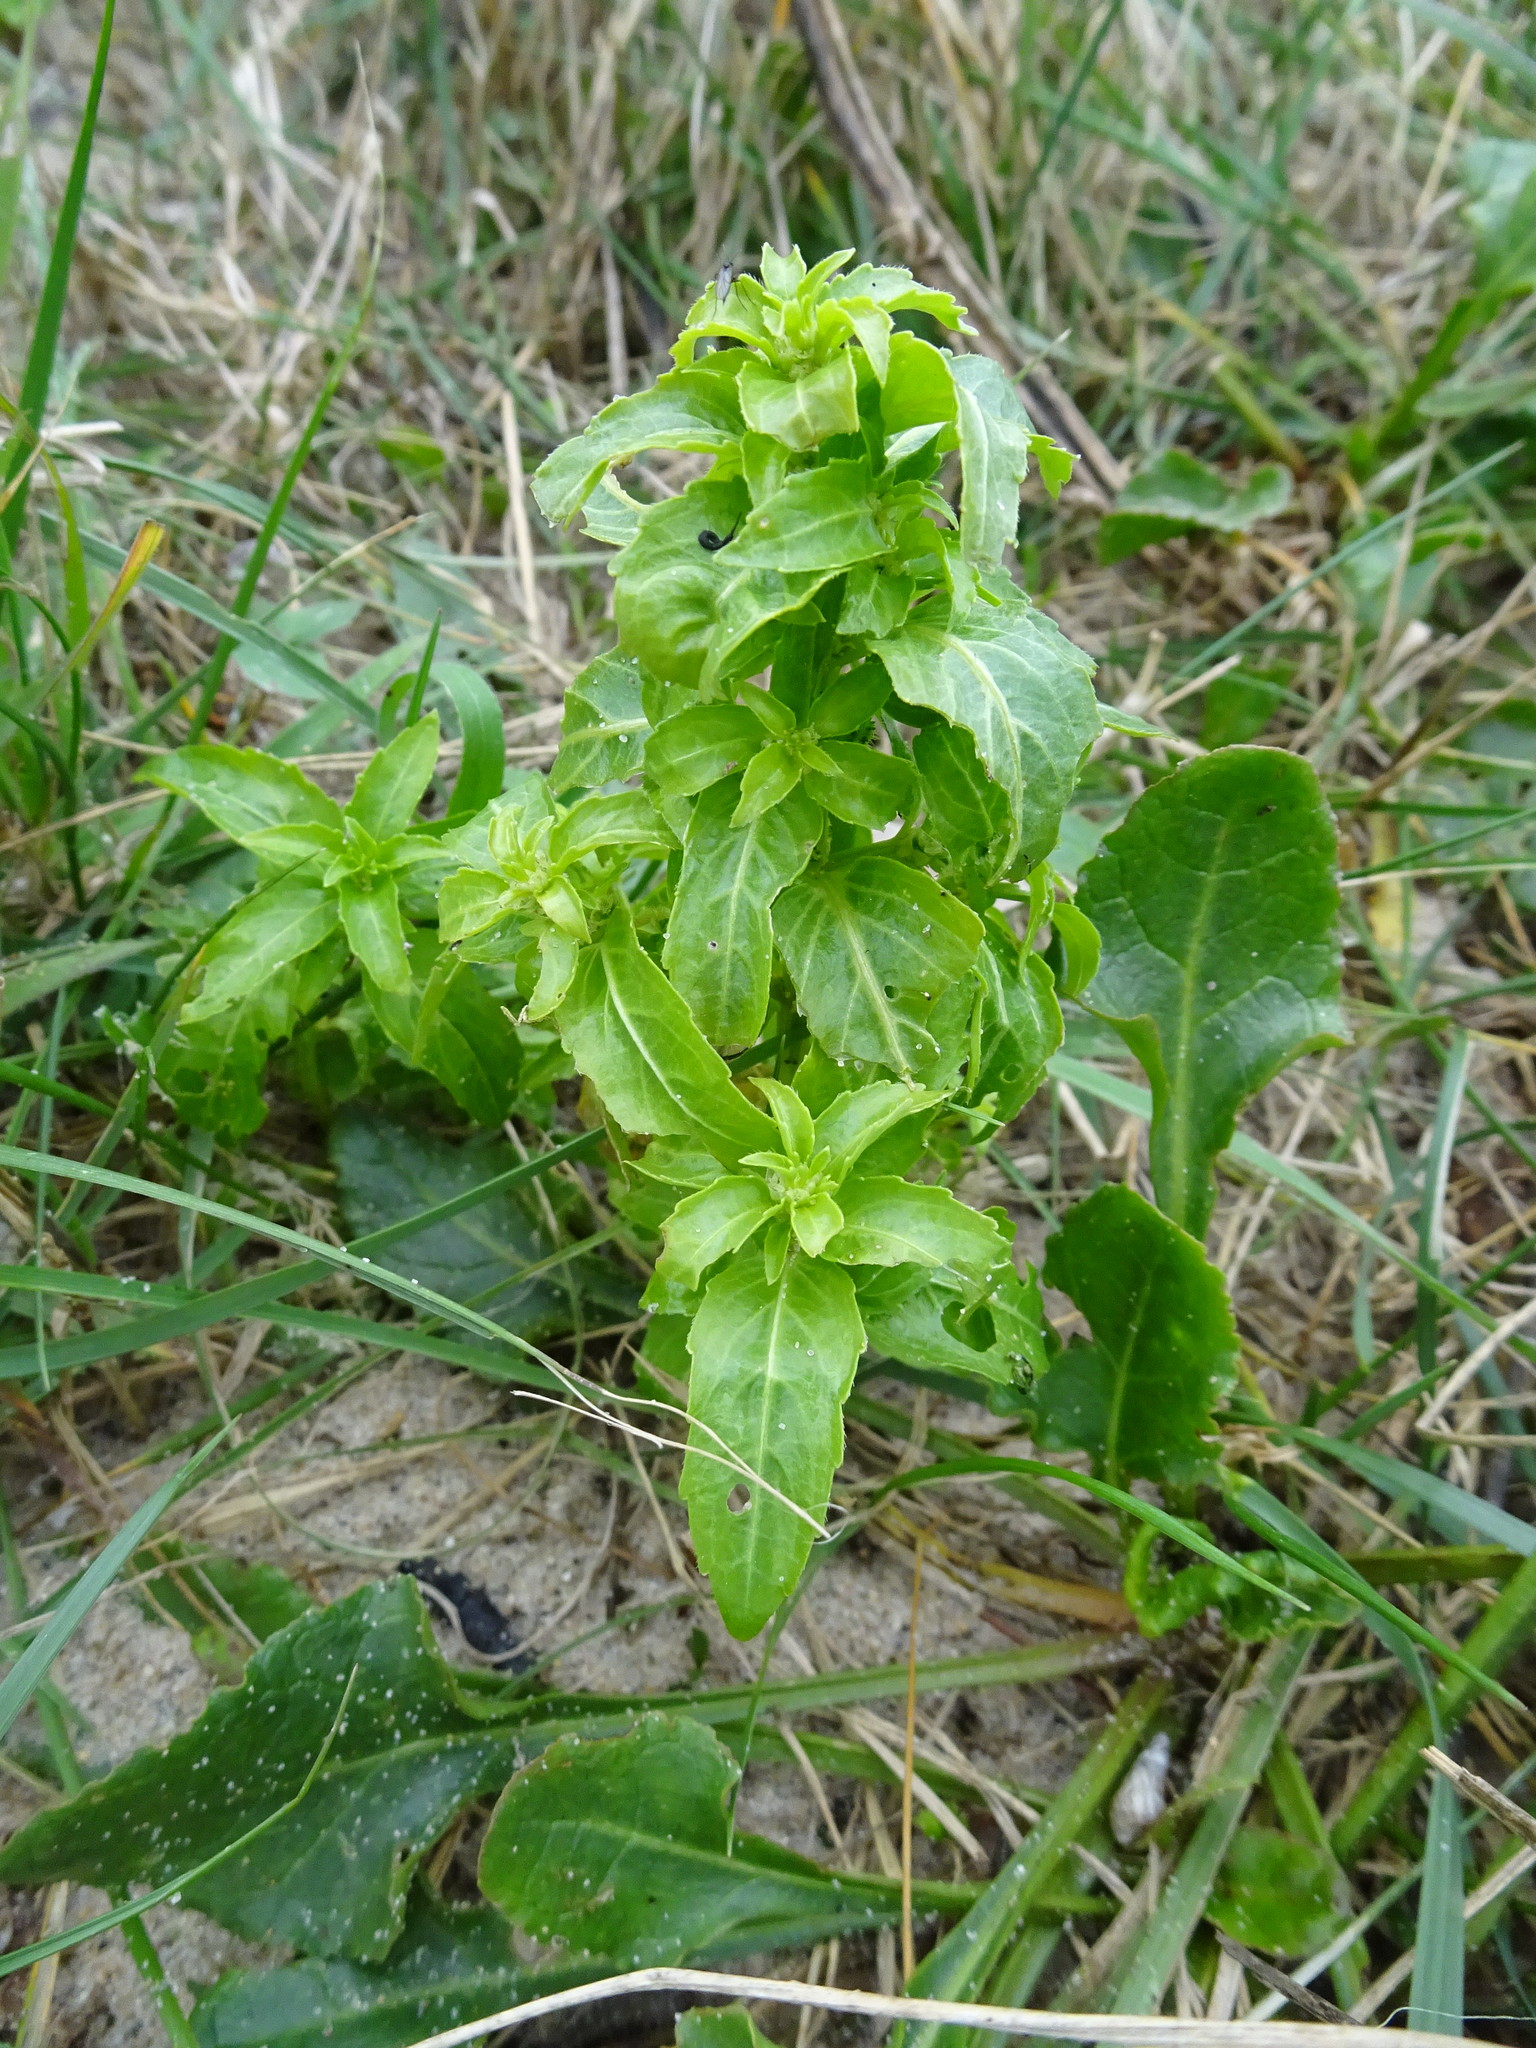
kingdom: Plantae
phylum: Tracheophyta
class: Magnoliopsida
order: Malpighiales
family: Euphorbiaceae
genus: Mercurialis
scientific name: Mercurialis annua
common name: Annual mercury
